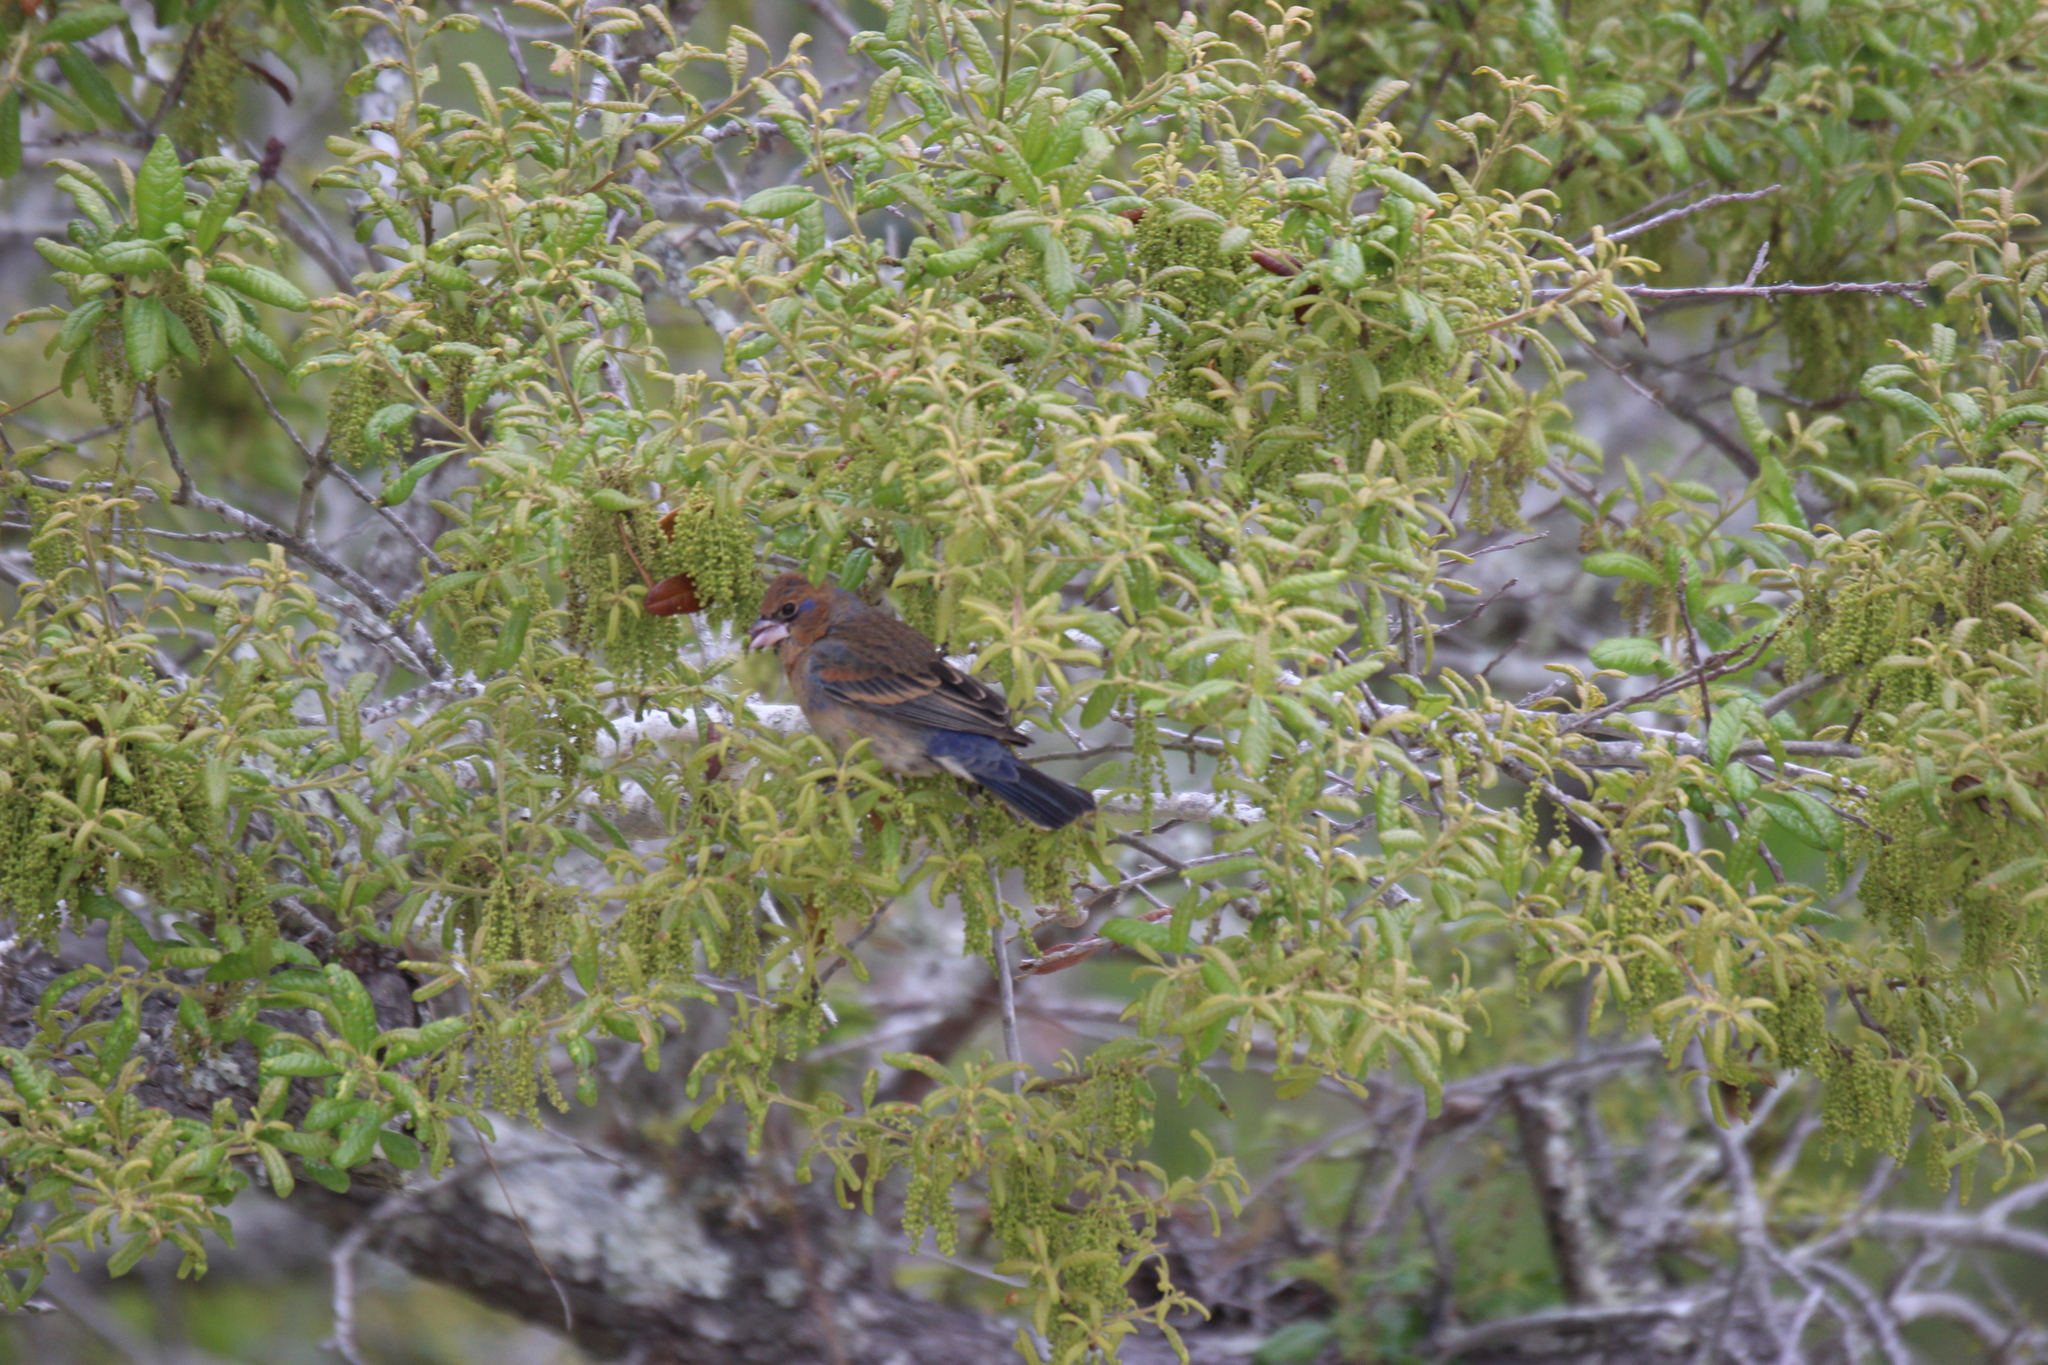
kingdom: Animalia
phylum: Chordata
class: Aves
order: Passeriformes
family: Cardinalidae
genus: Passerina
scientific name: Passerina caerulea
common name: Blue grosbeak
